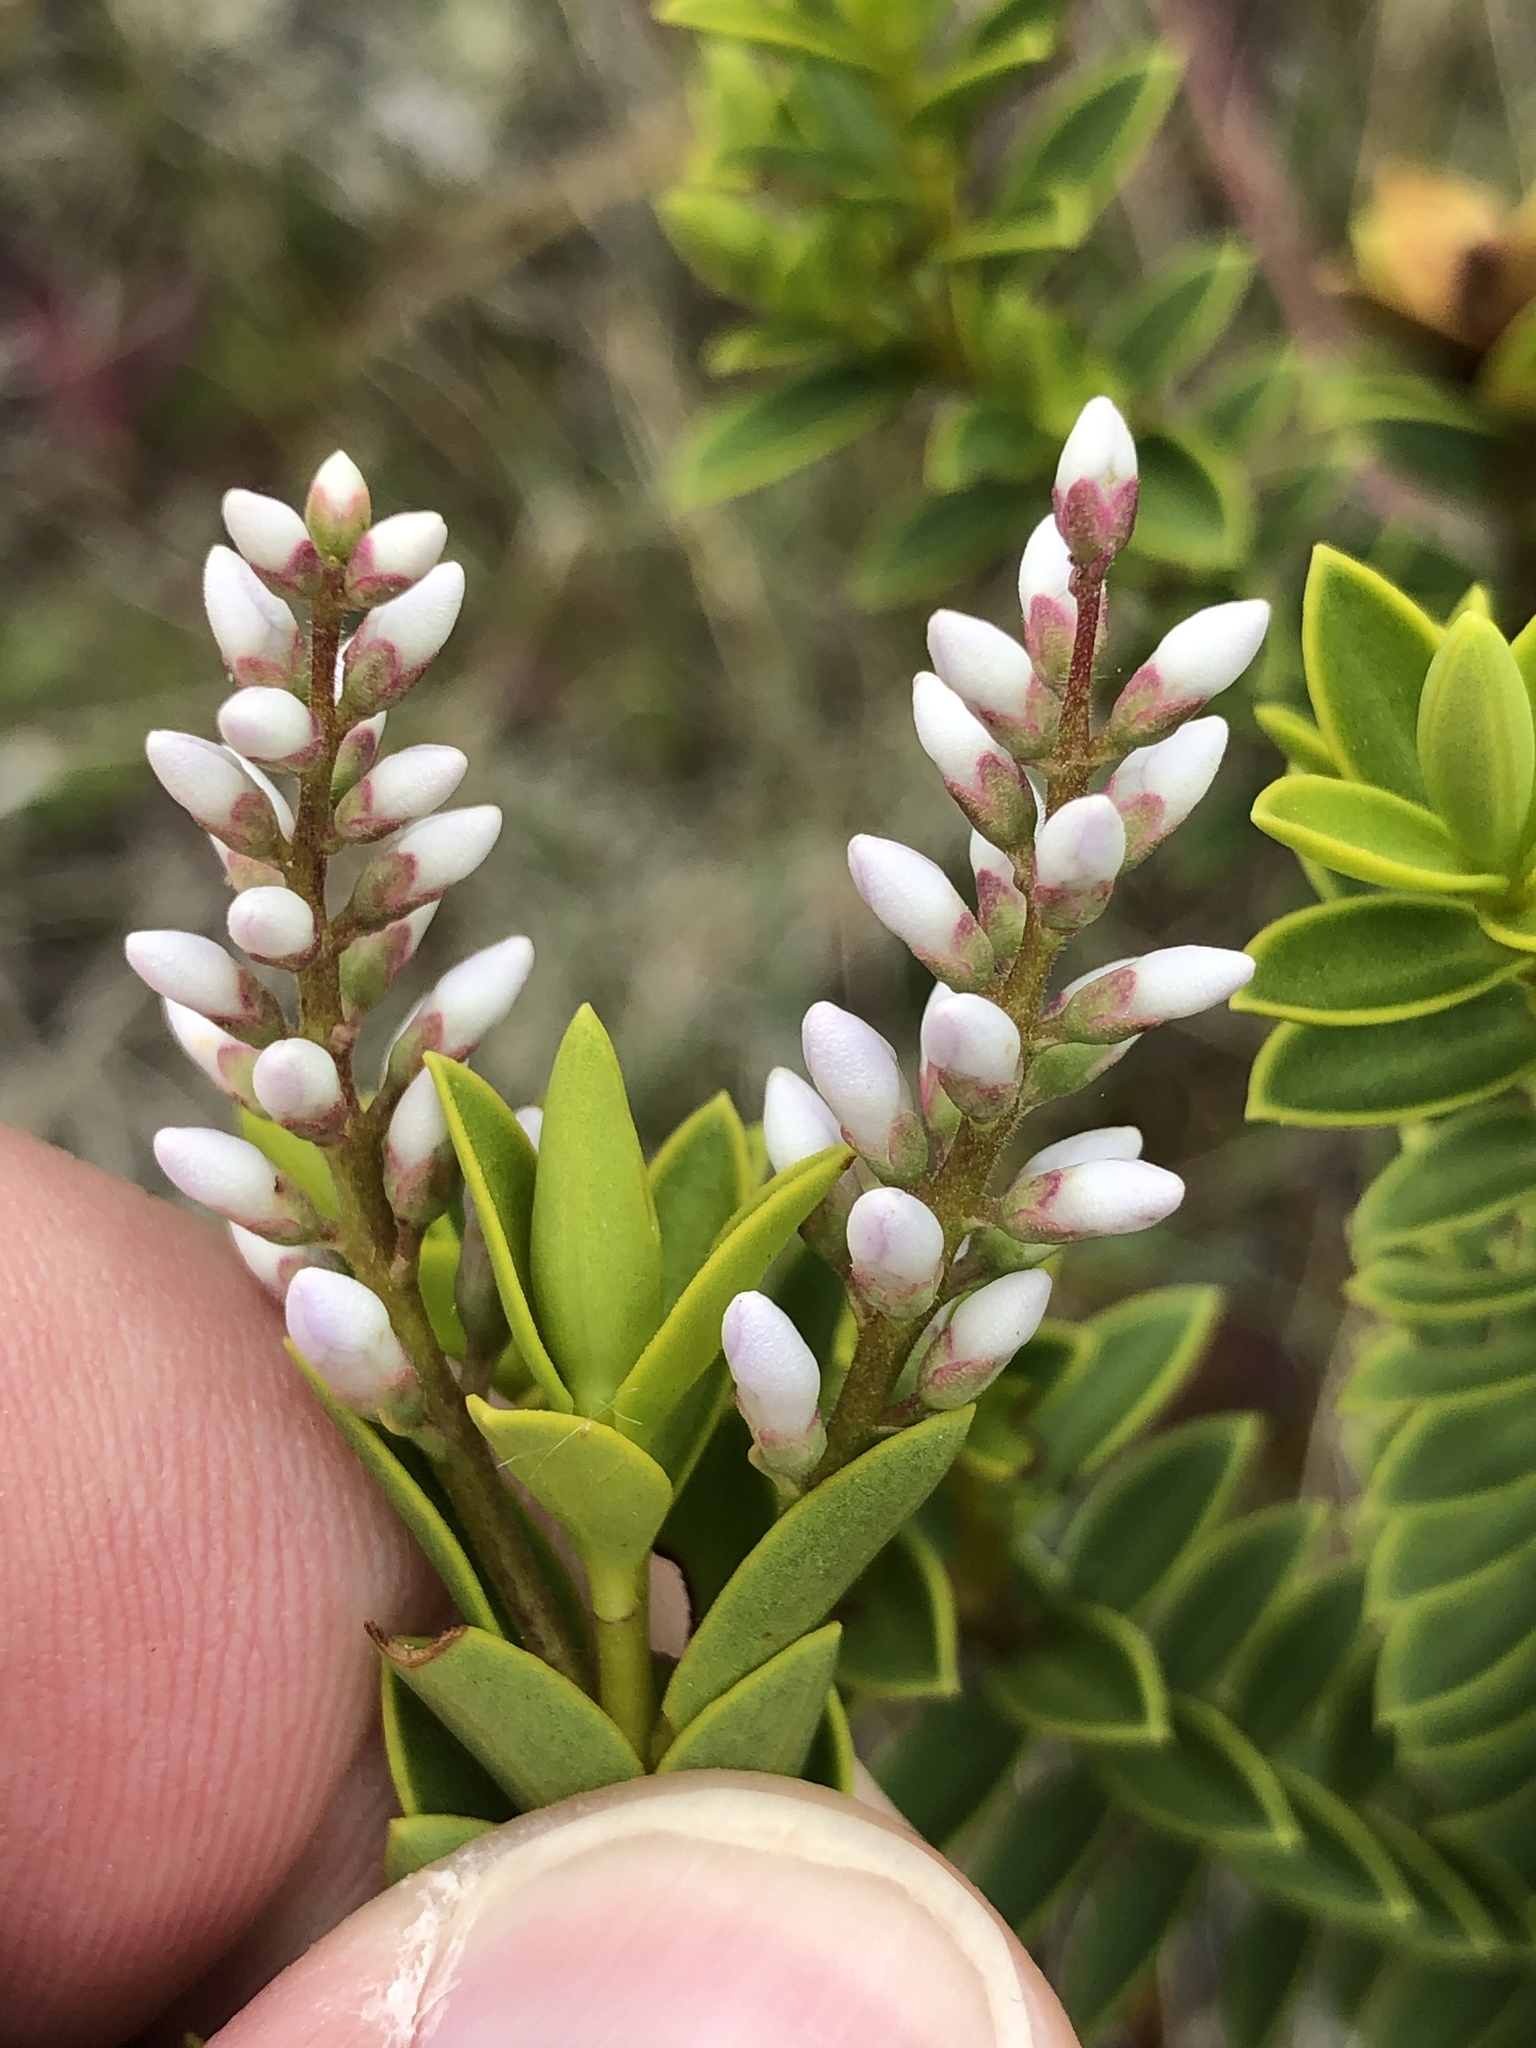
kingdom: Plantae
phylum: Tracheophyta
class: Magnoliopsida
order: Lamiales
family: Plantaginaceae
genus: Veronica
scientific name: Veronica brachysiphon
